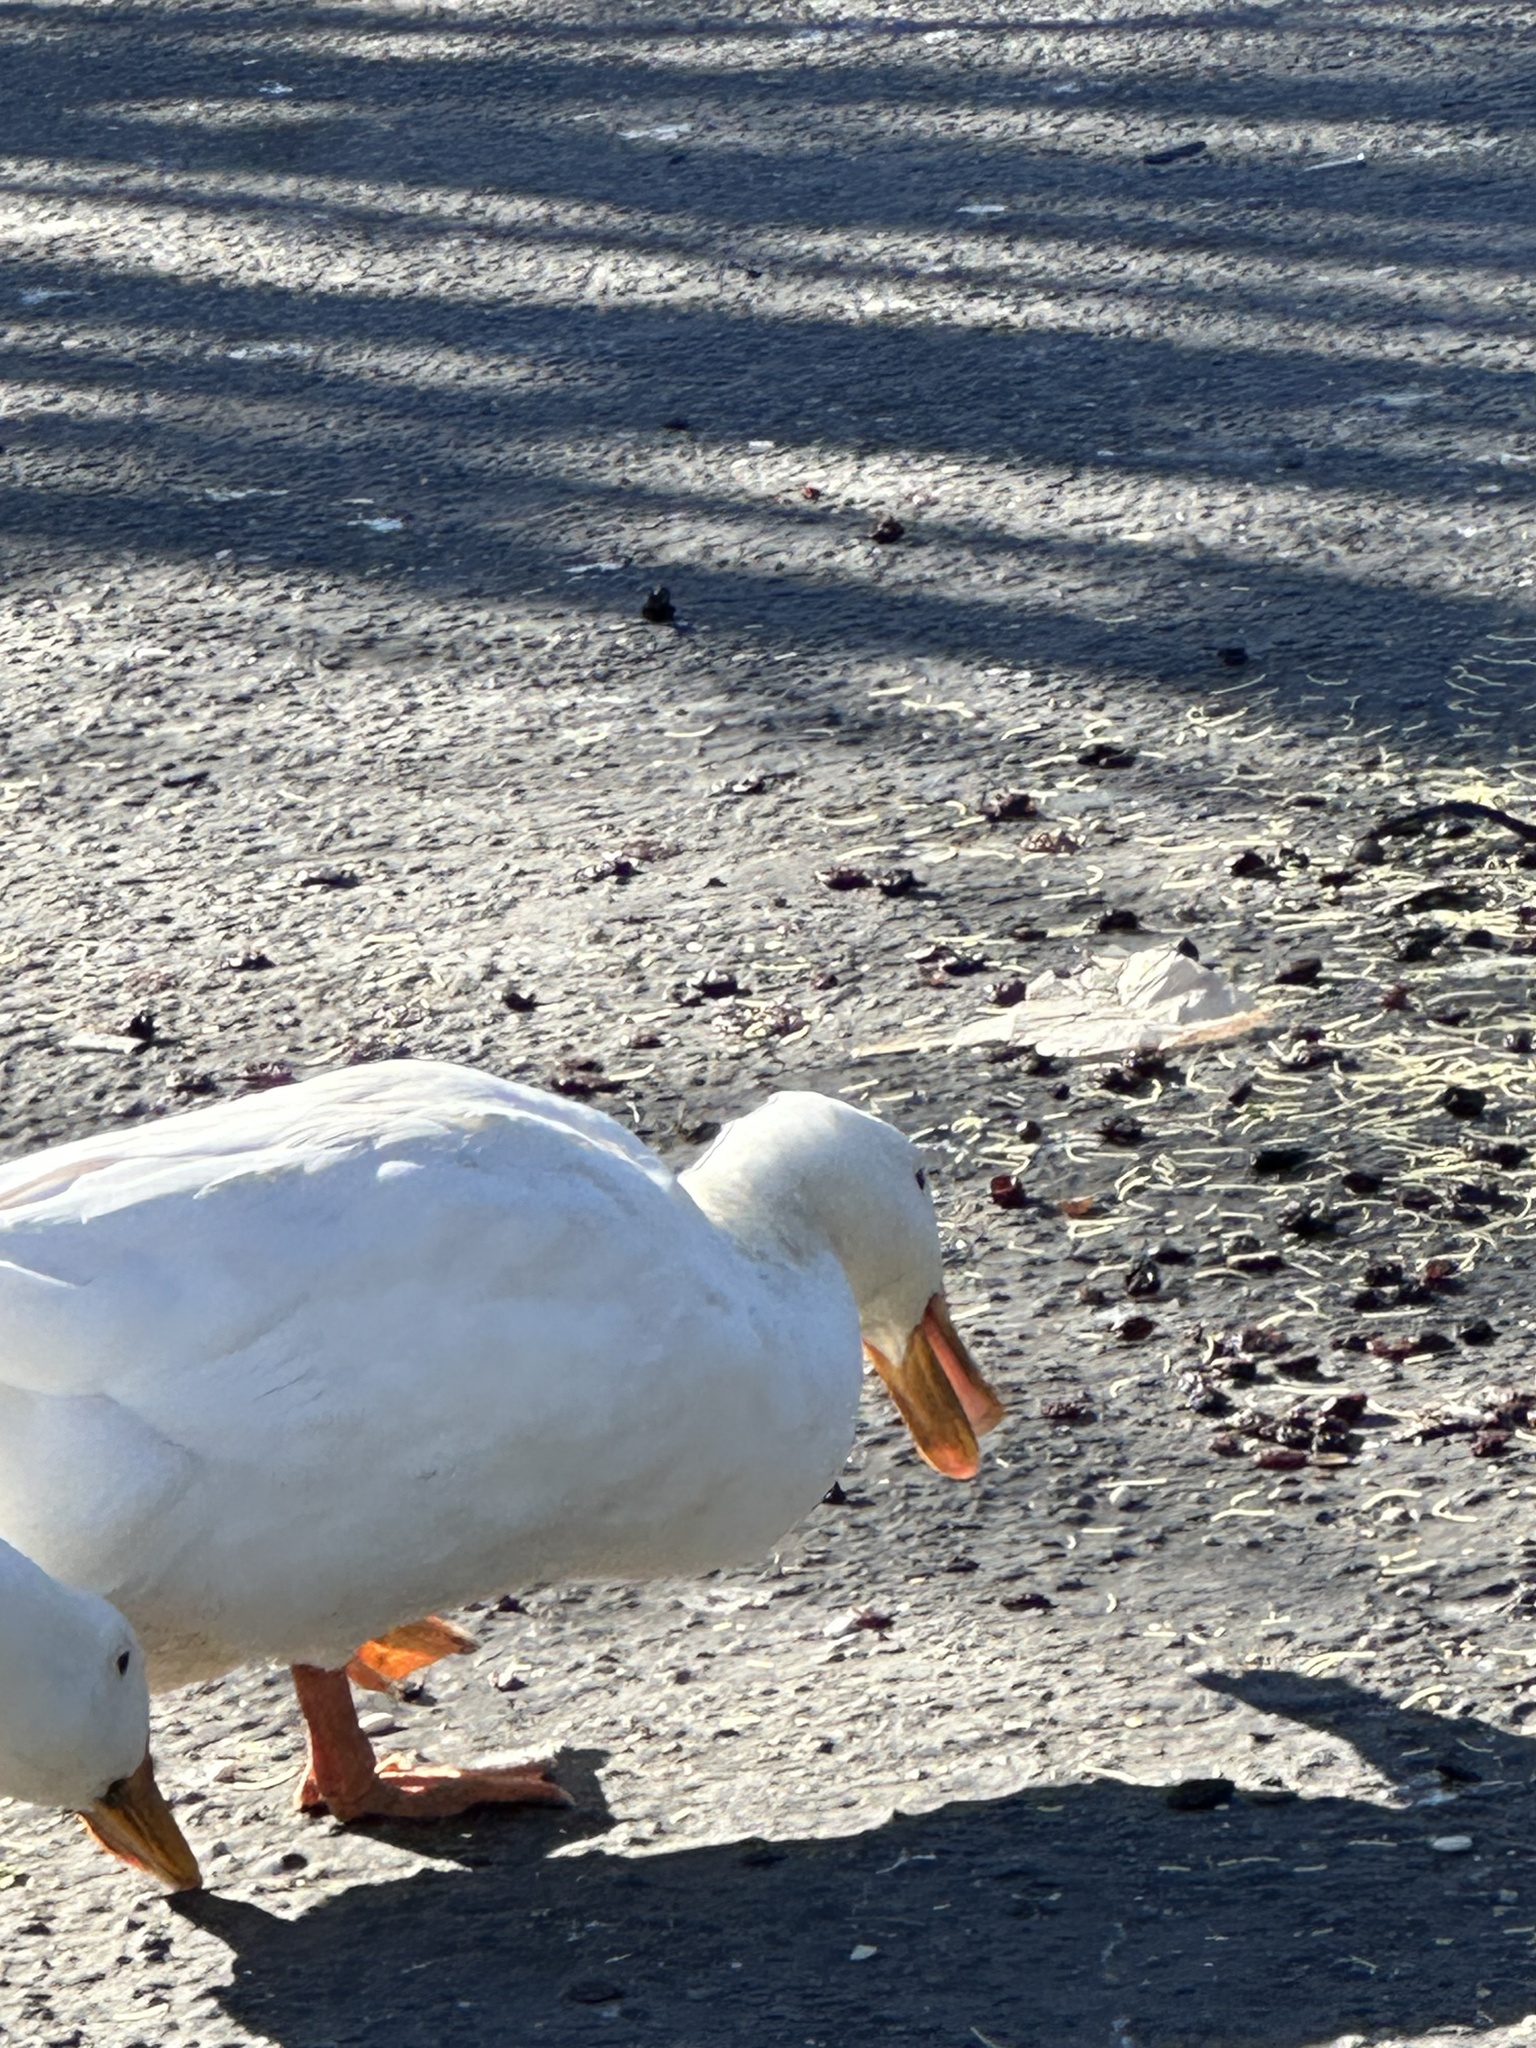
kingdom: Animalia
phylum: Chordata
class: Aves
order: Anseriformes
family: Anatidae
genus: Anas
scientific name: Anas platyrhynchos
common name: Mallard
